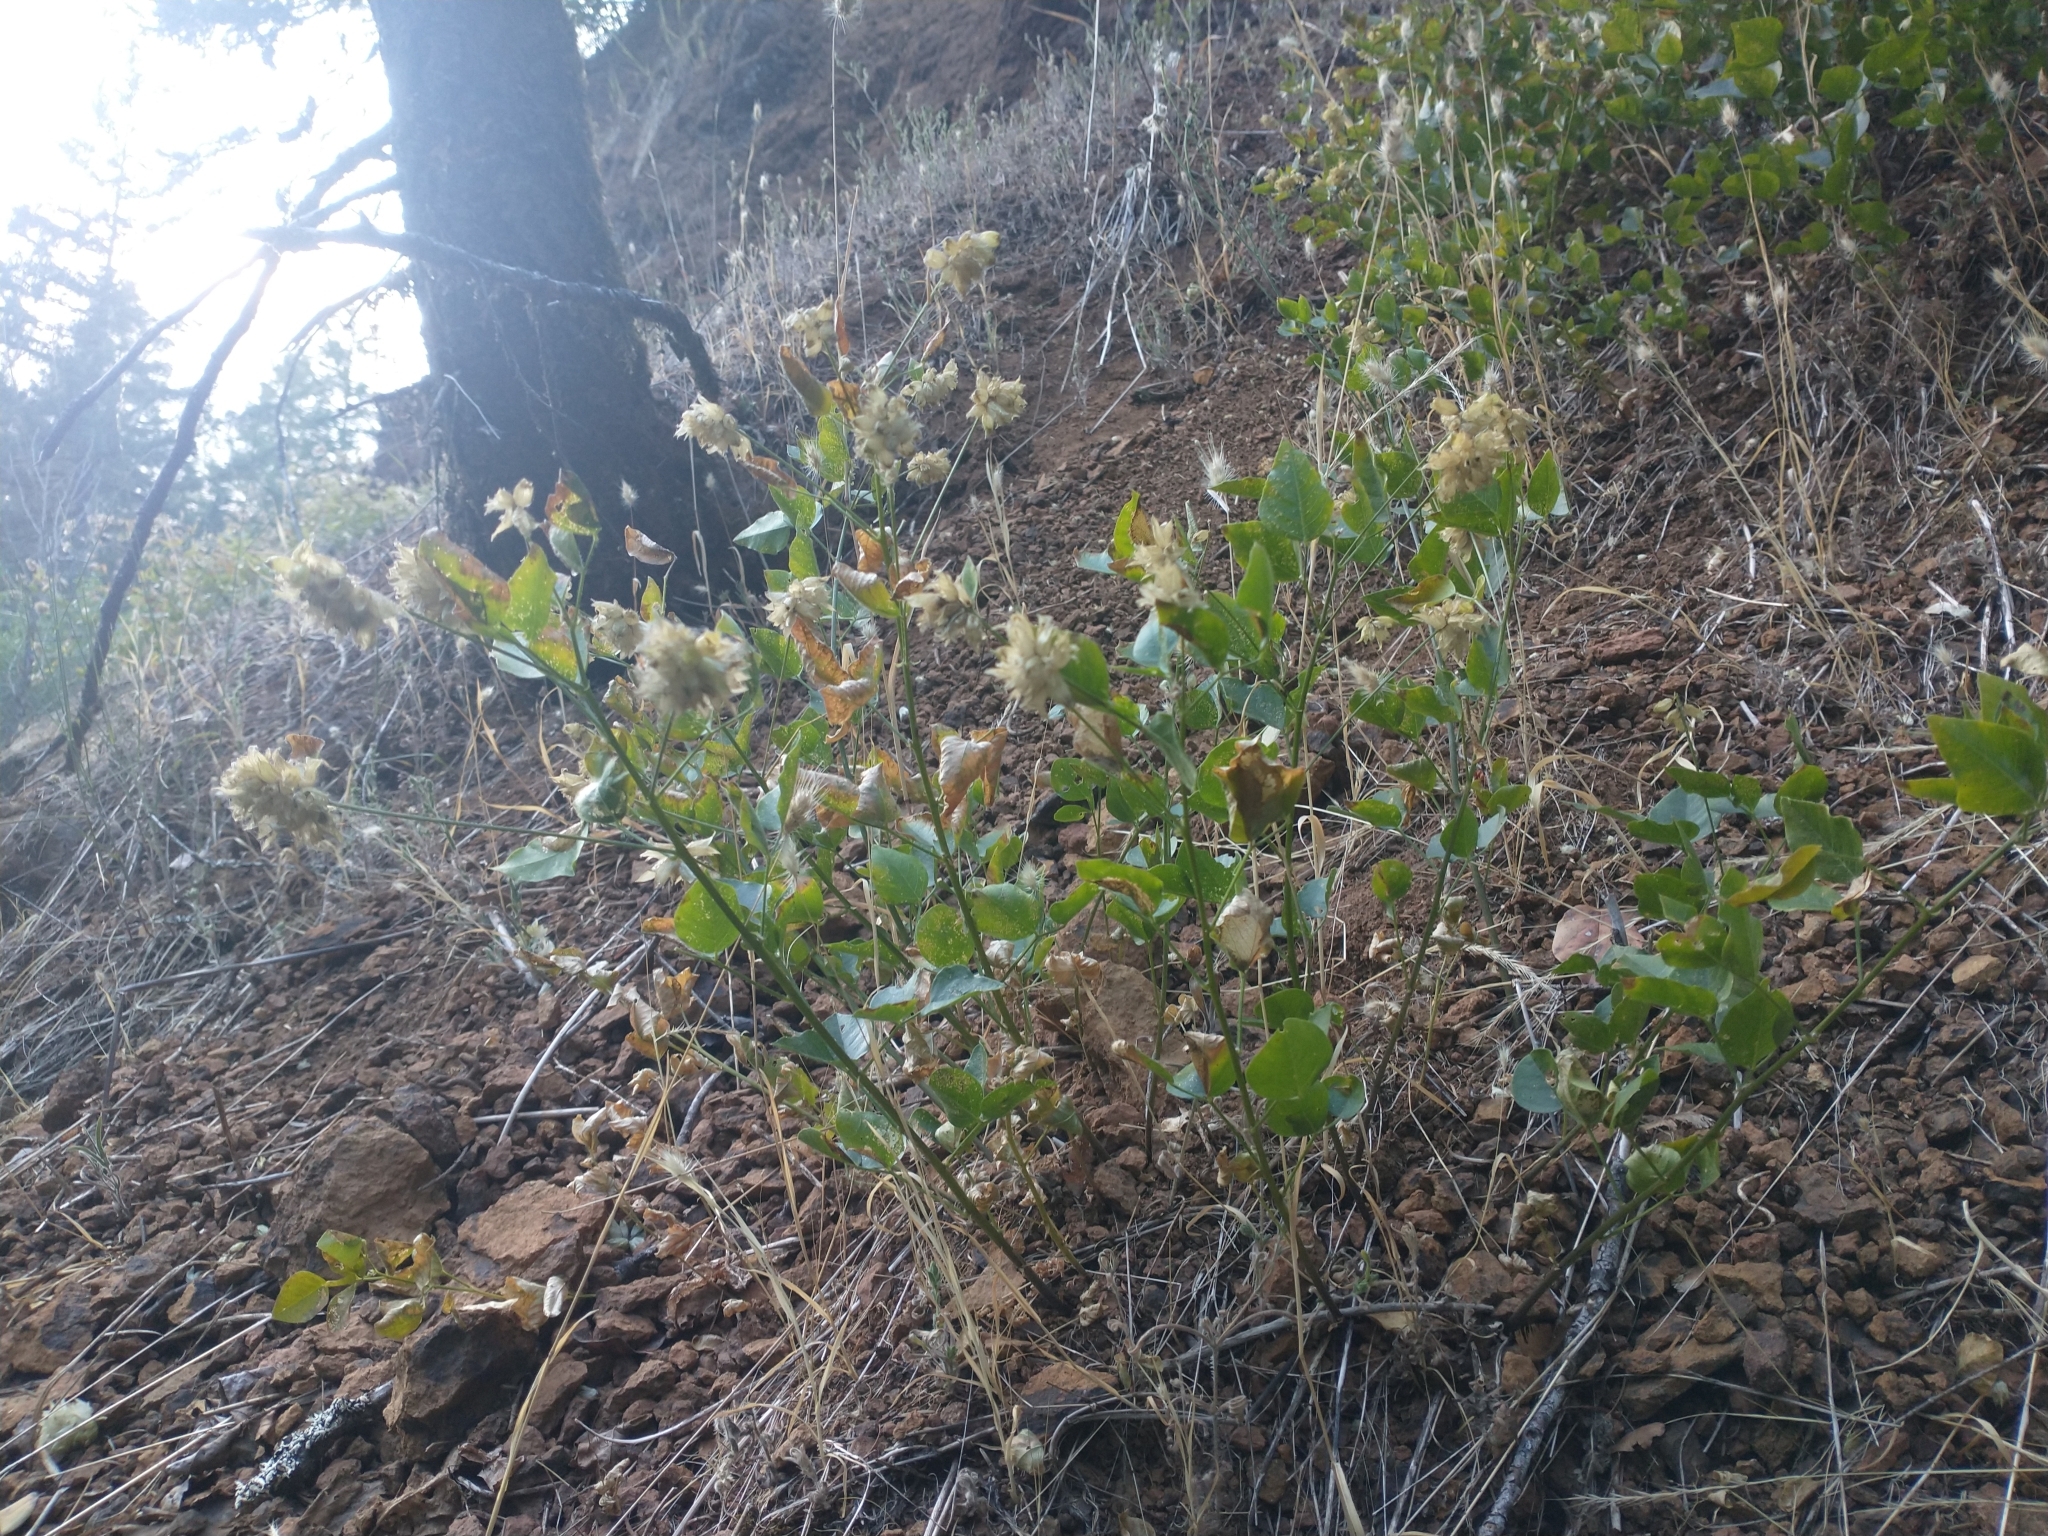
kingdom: Plantae
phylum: Tracheophyta
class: Magnoliopsida
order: Fabales
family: Fabaceae
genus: Rupertia
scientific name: Rupertia physodes
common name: California-tea
